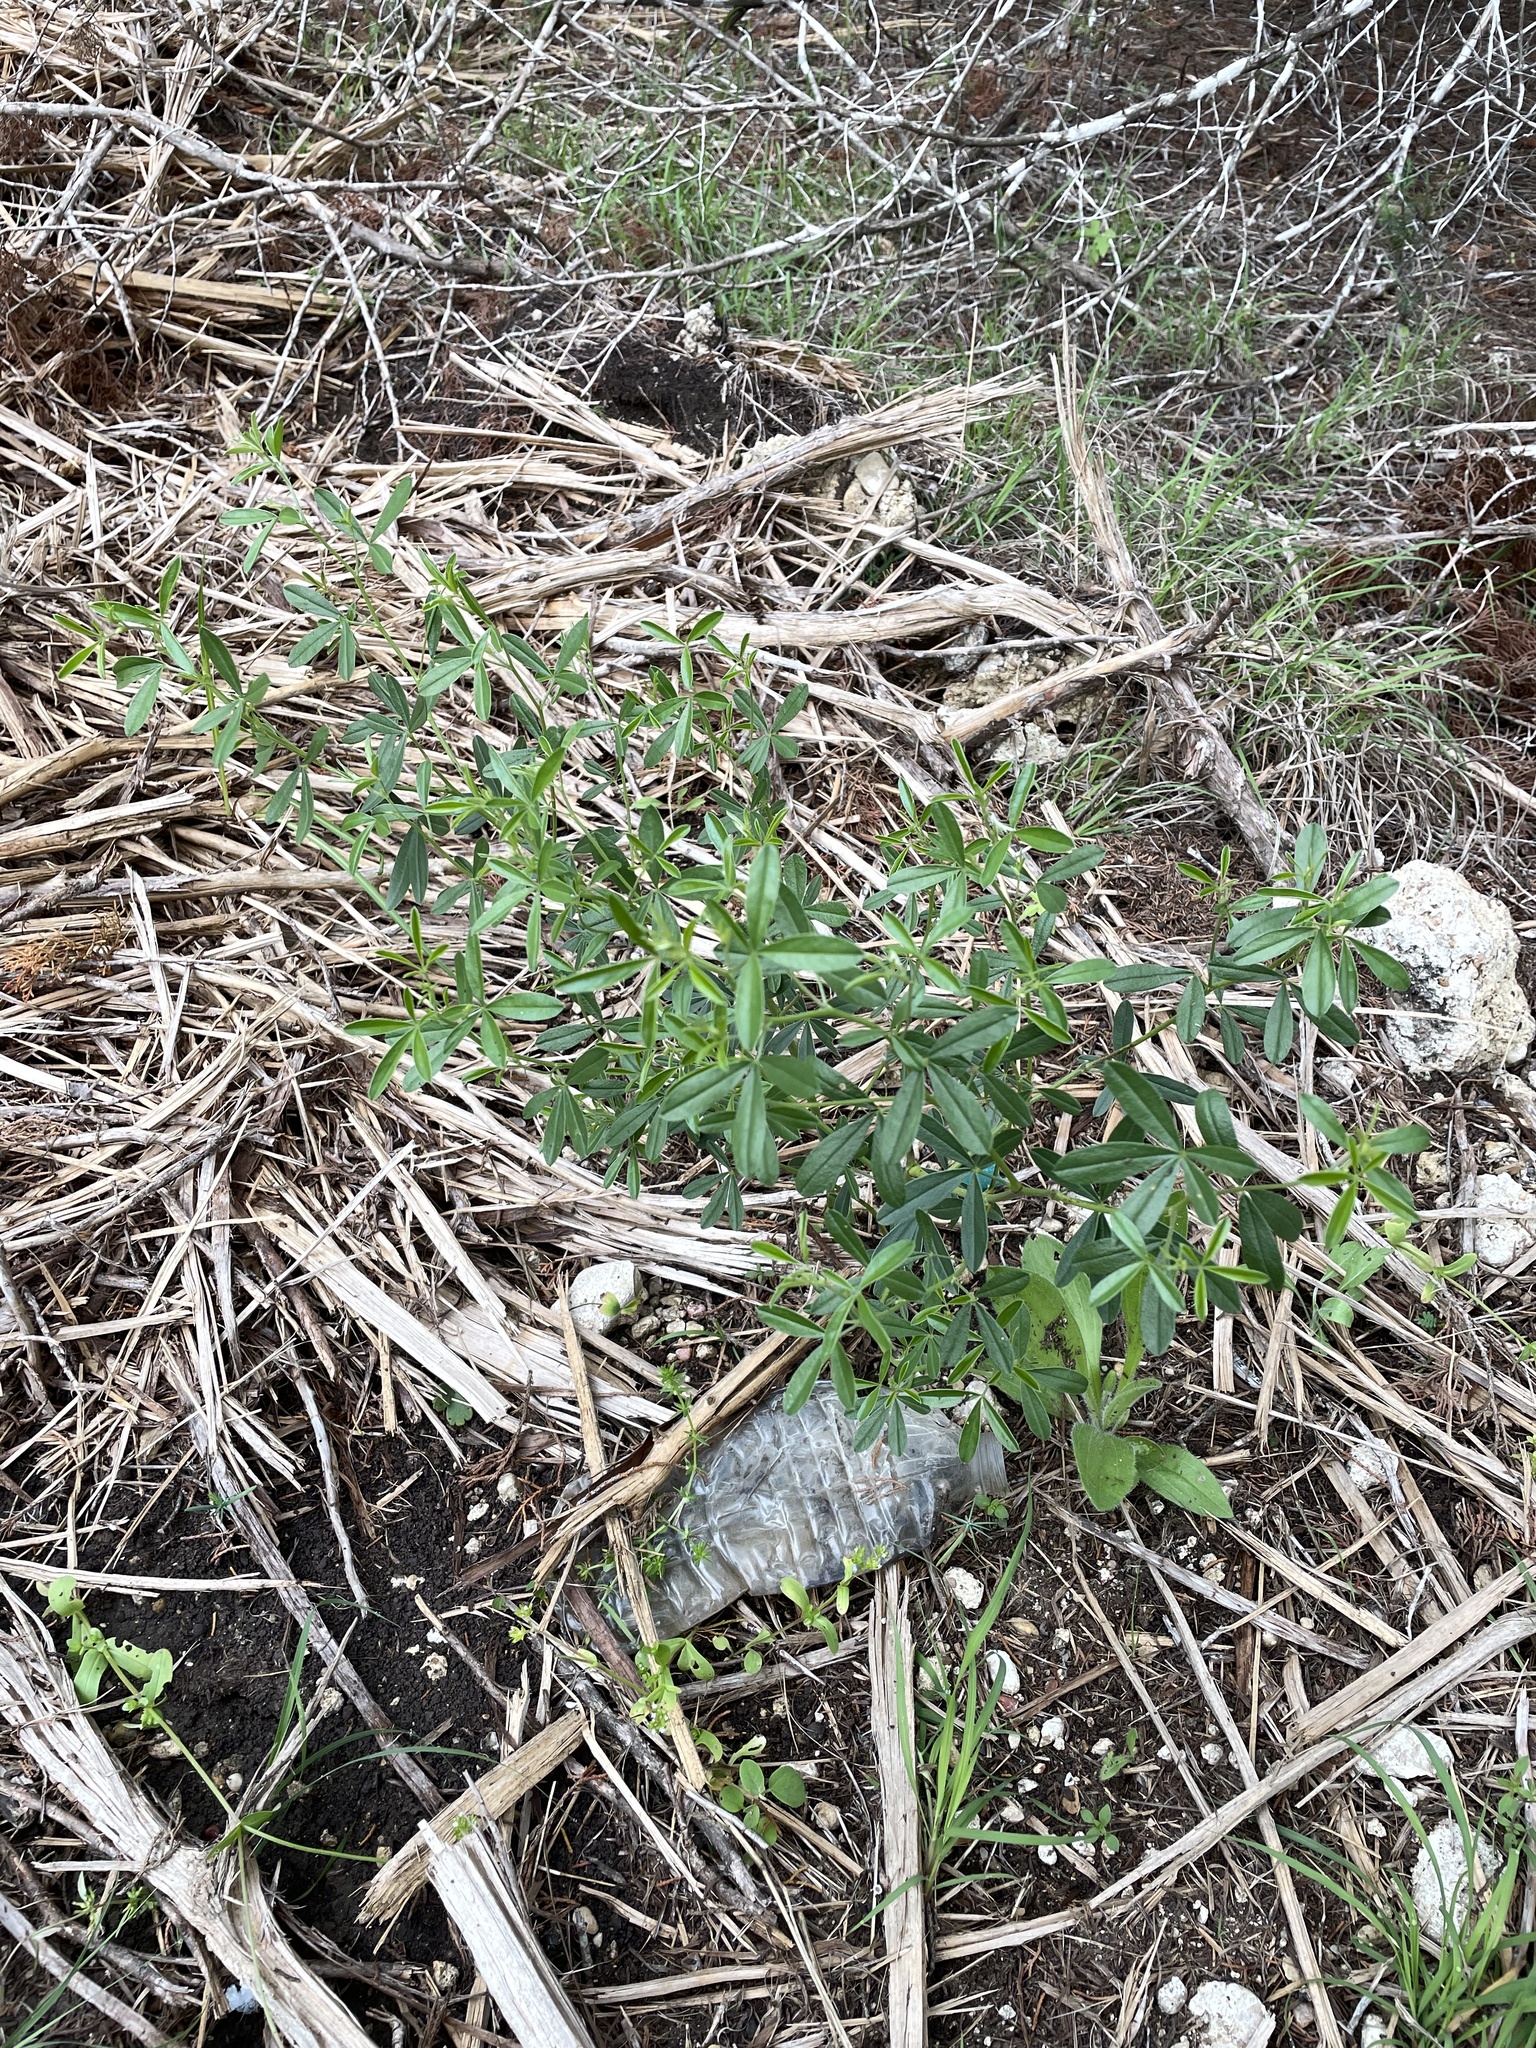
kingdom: Plantae
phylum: Tracheophyta
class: Magnoliopsida
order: Fabales
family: Fabaceae
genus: Pediomelum
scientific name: Pediomelum tenuiflorum
